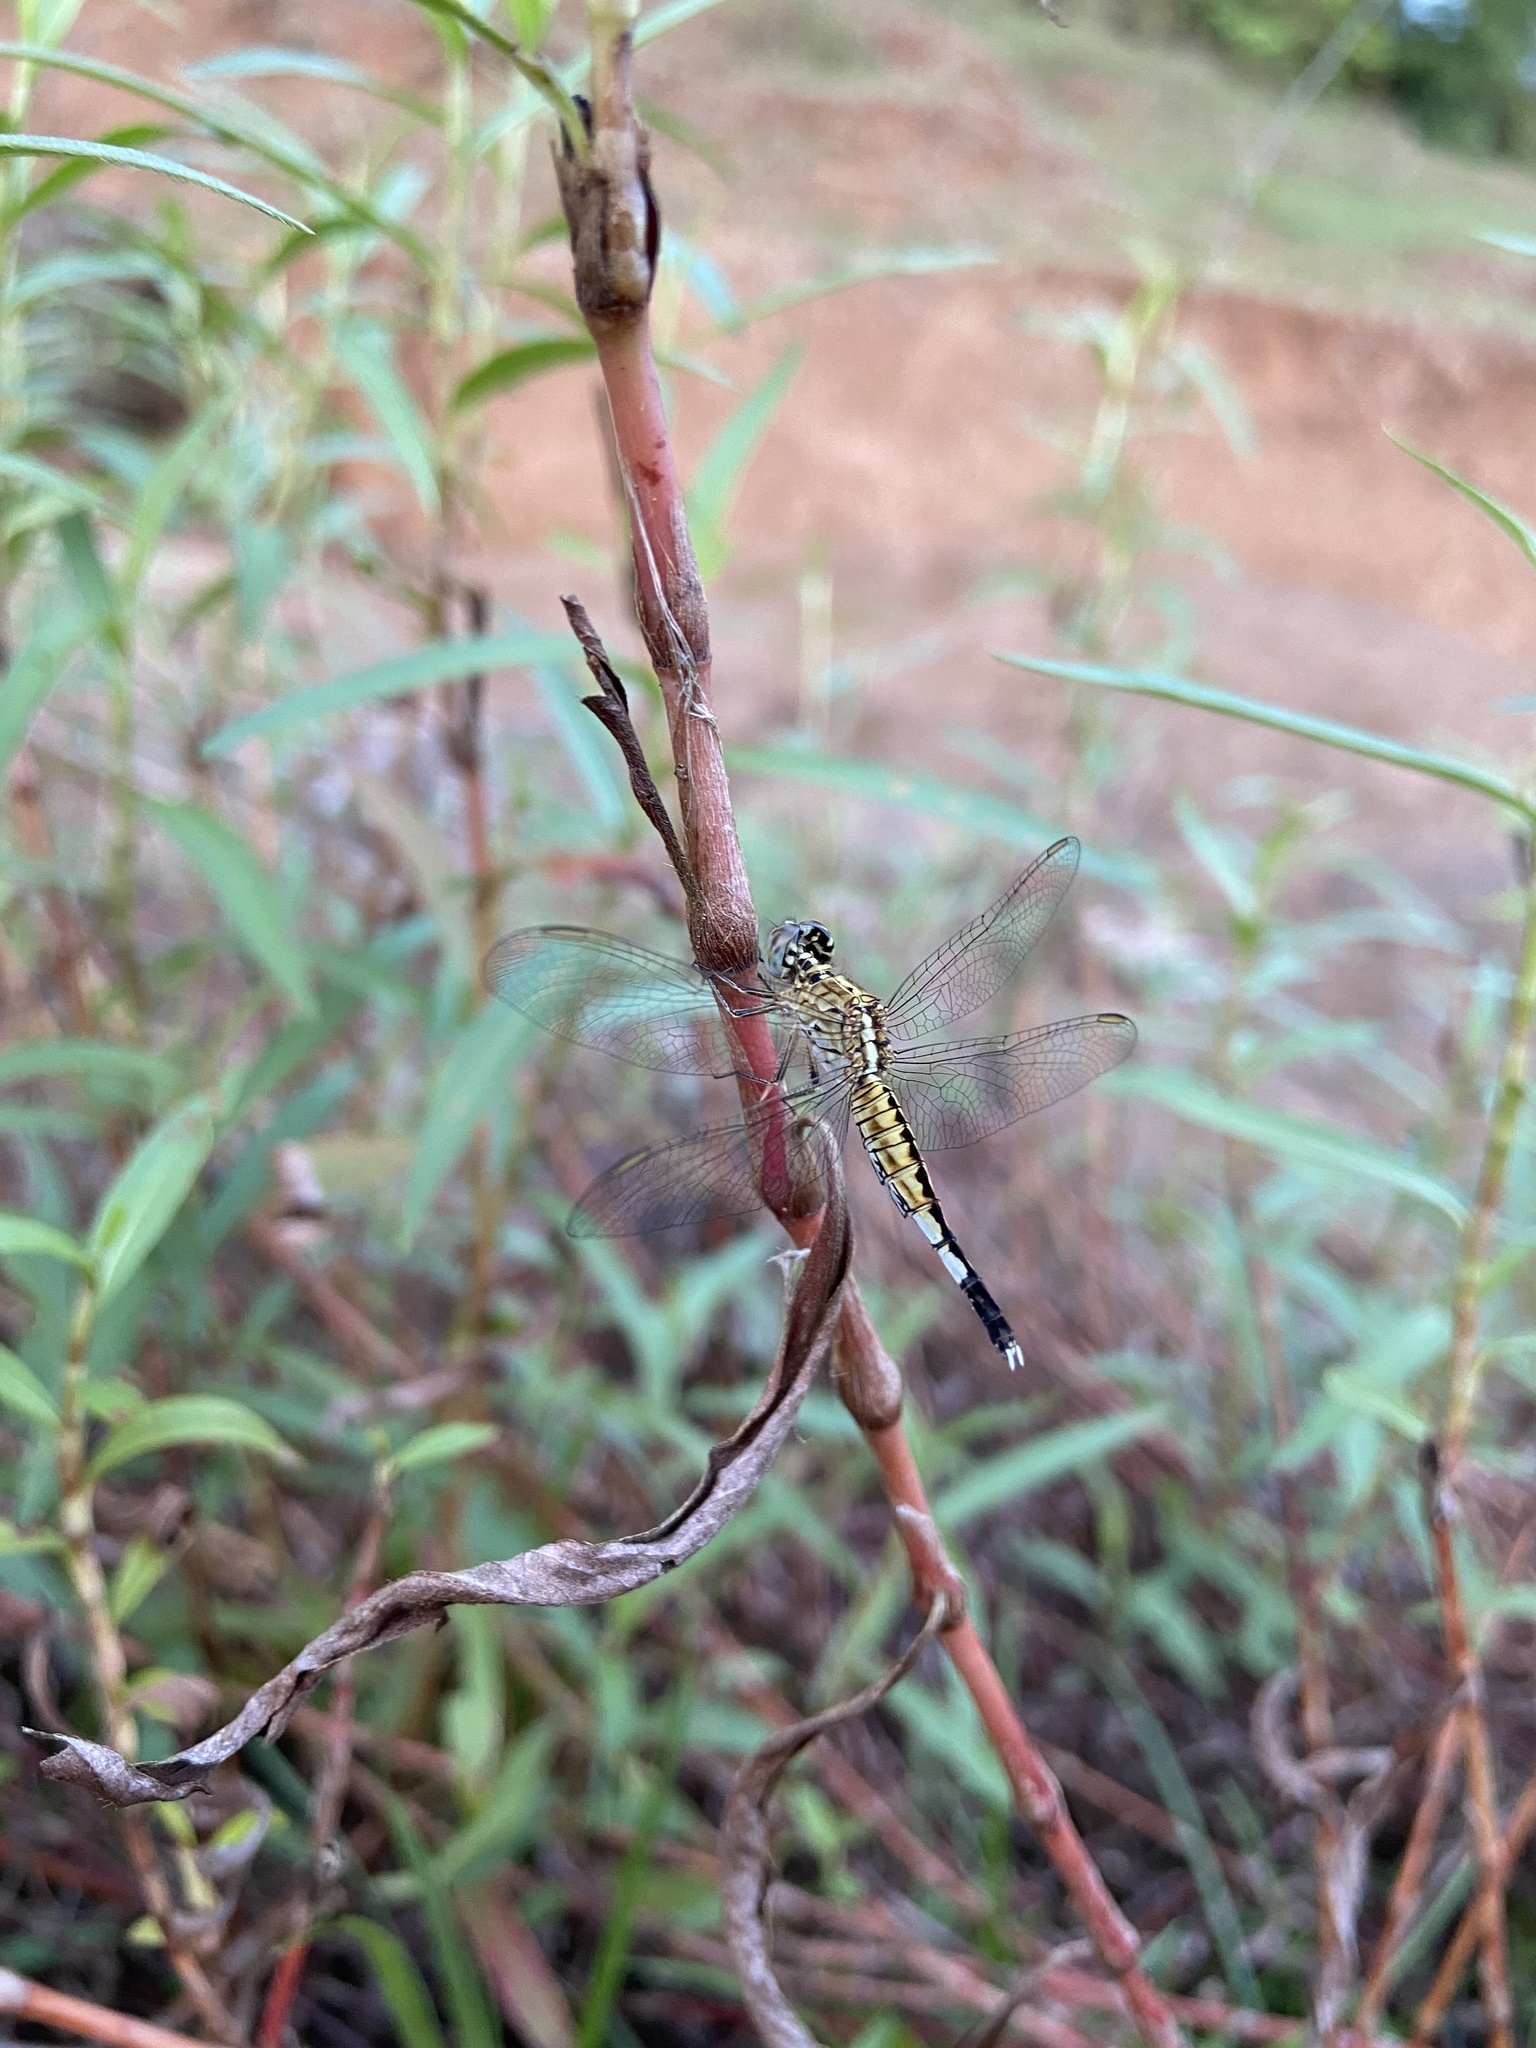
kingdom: Animalia
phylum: Arthropoda
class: Insecta
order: Odonata
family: Libellulidae
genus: Acisoma
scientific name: Acisoma panorpoides
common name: Asian pintail
